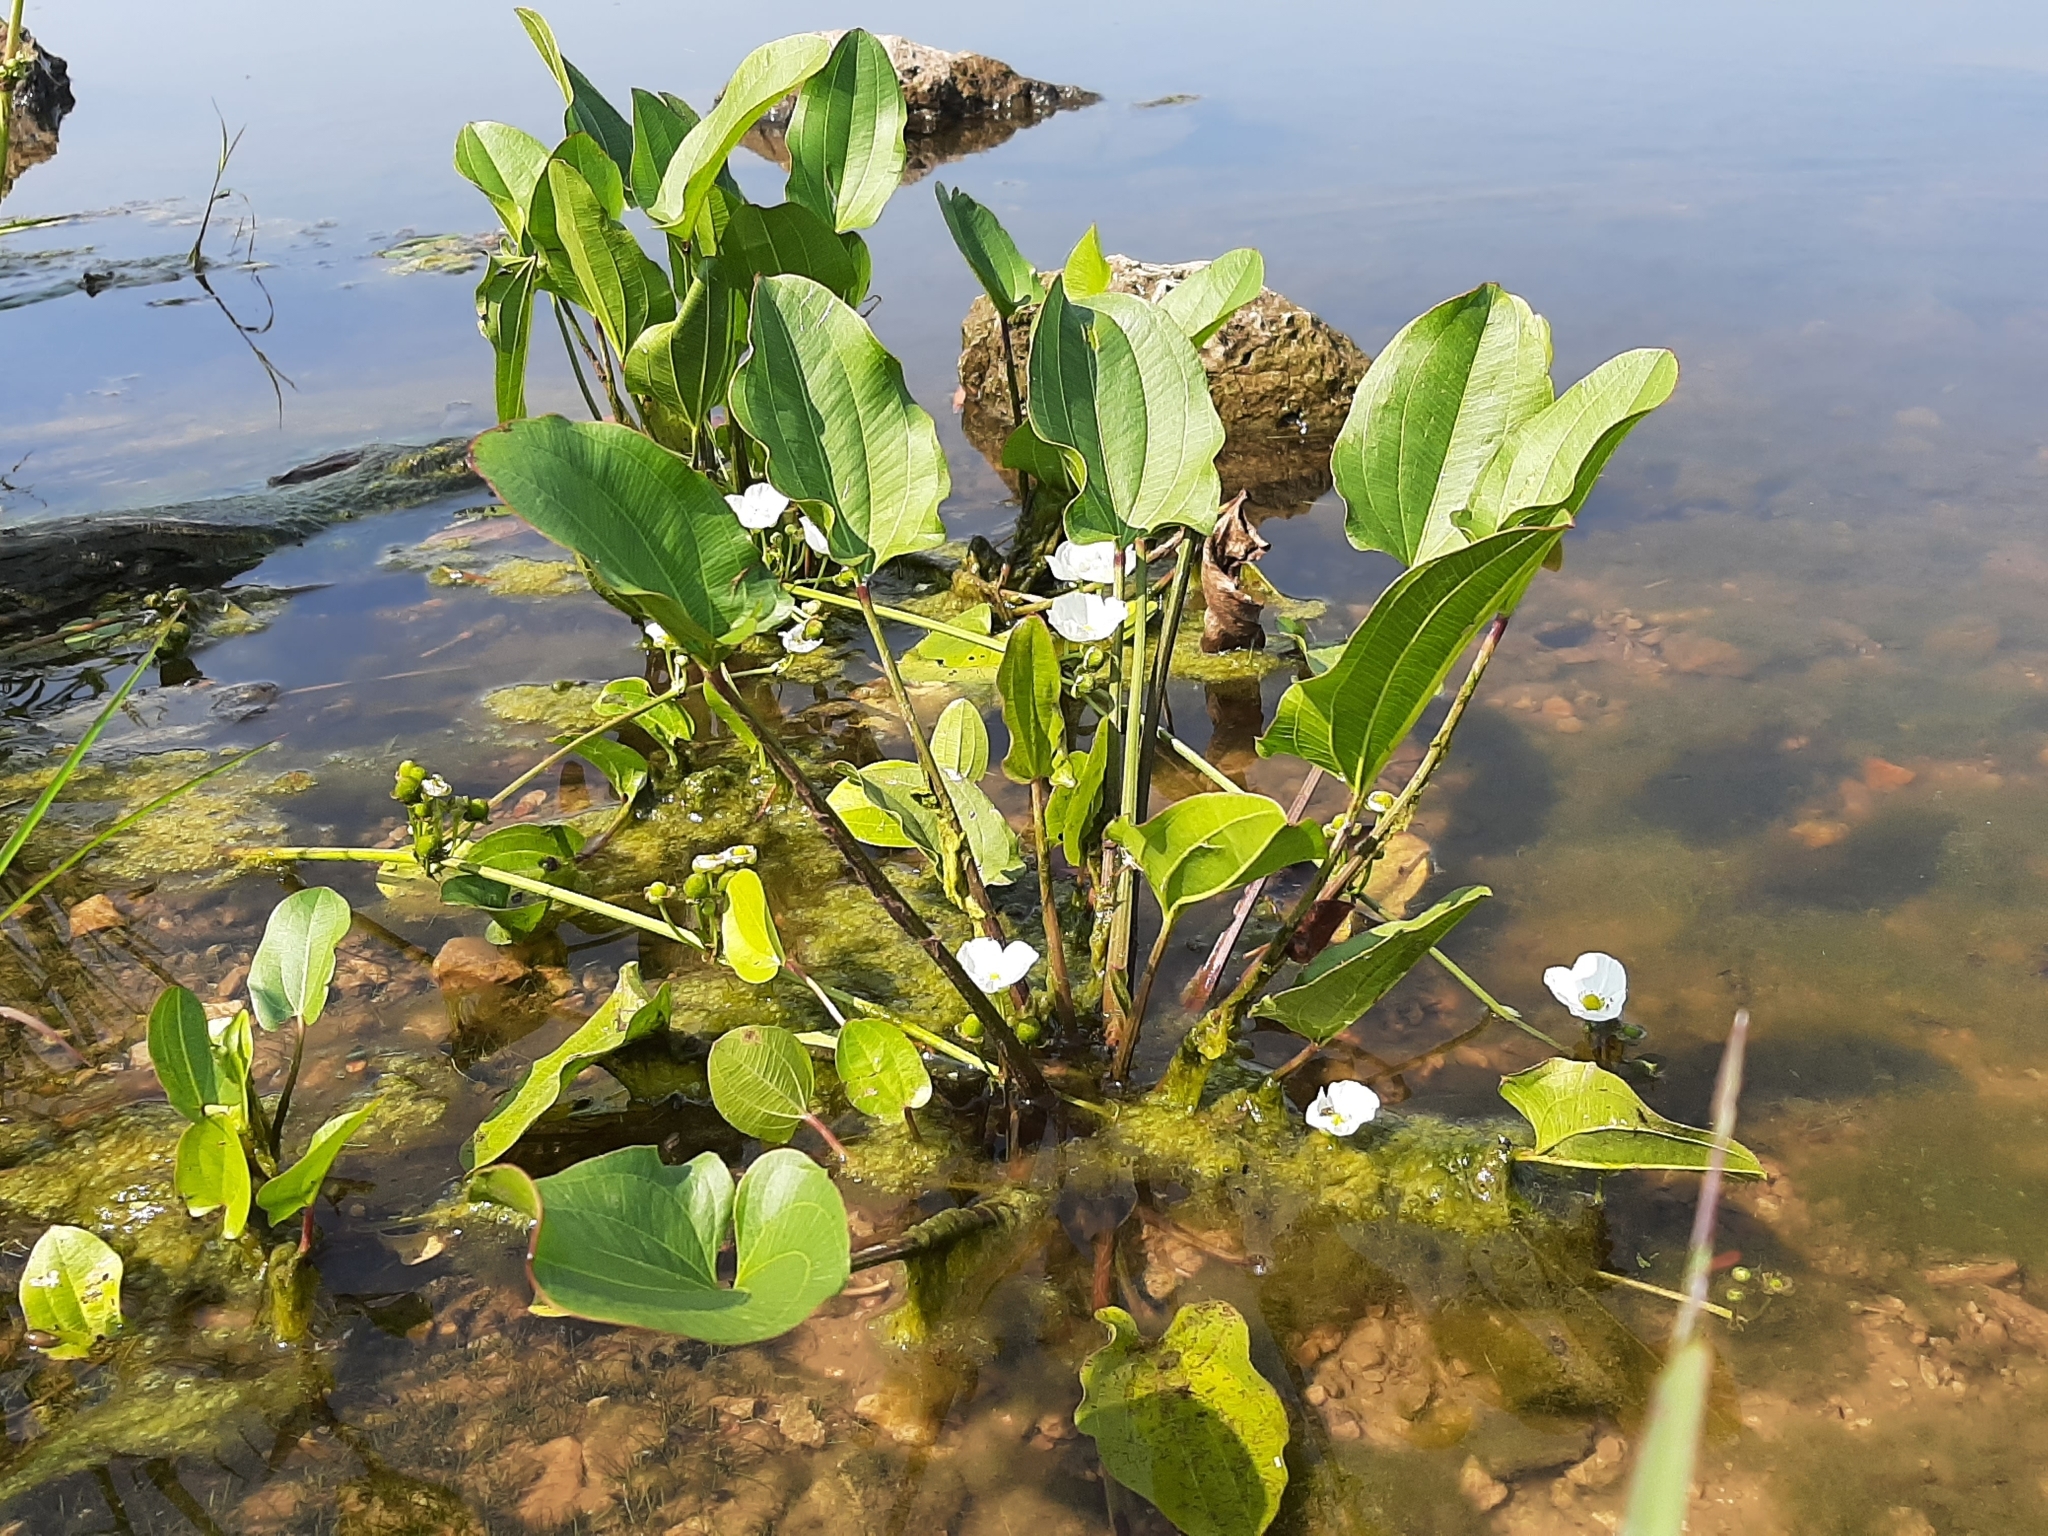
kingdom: Plantae
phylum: Tracheophyta
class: Liliopsida
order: Alismatales
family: Alismataceae
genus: Aquarius
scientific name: Aquarius cordifolius
